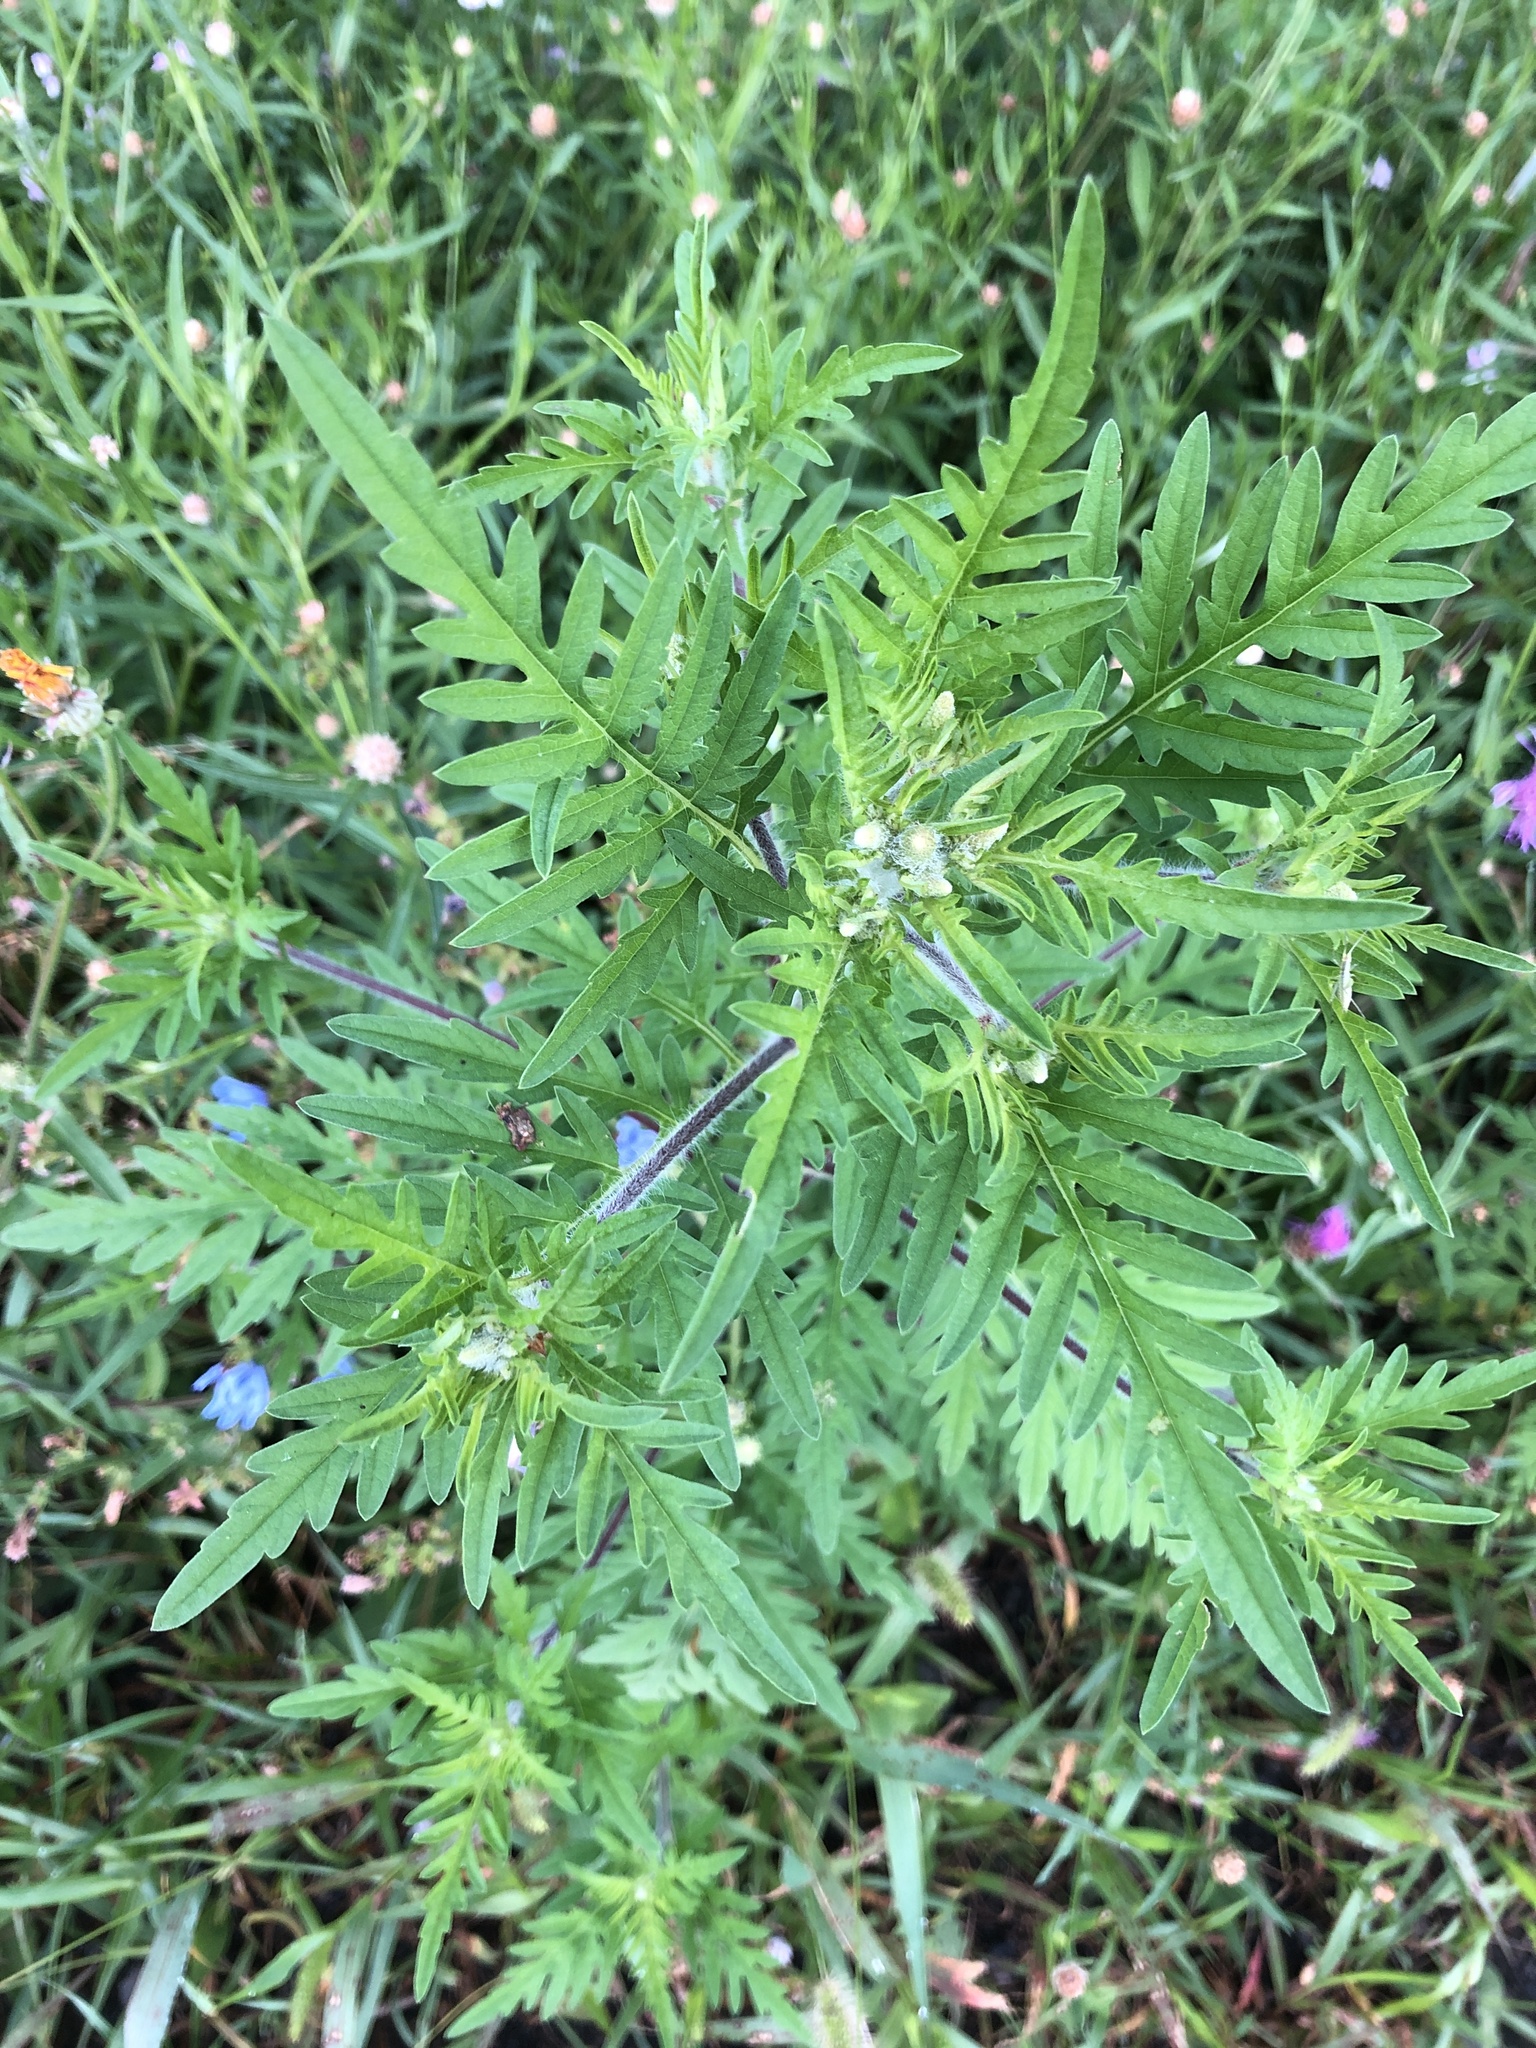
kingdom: Plantae
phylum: Tracheophyta
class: Magnoliopsida
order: Asterales
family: Asteraceae
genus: Ambrosia
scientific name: Ambrosia artemisiifolia
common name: Annual ragweed
